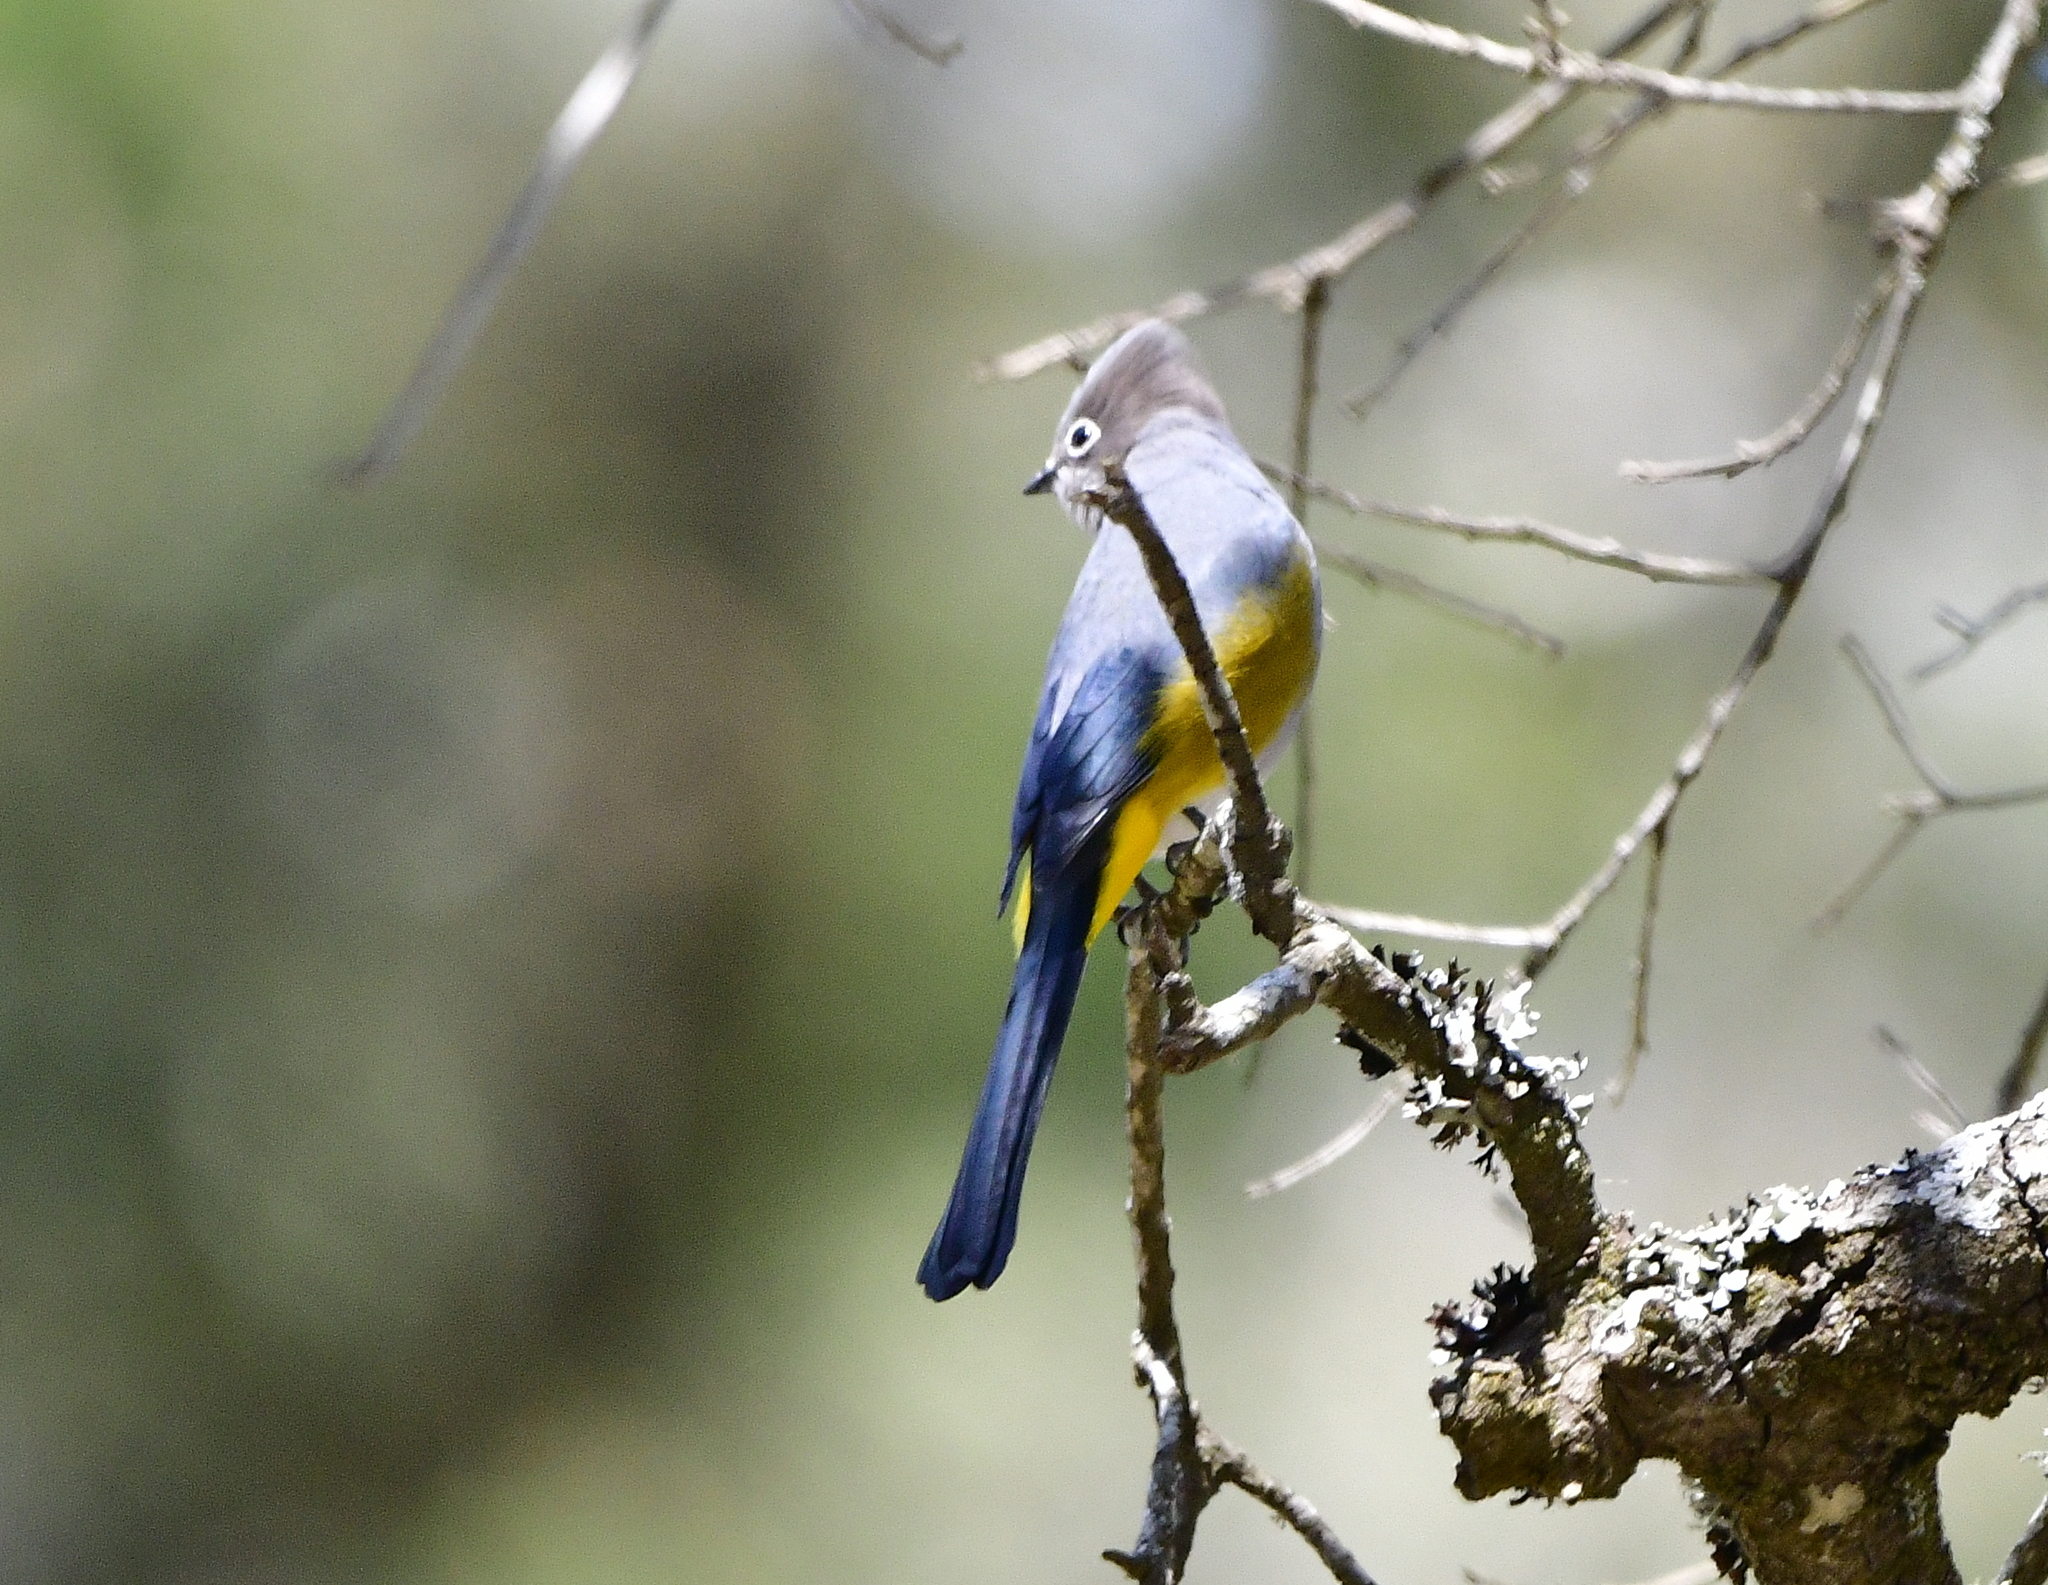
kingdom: Animalia
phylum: Chordata
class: Aves
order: Passeriformes
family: Ptilogonatidae
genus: Ptilogonys
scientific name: Ptilogonys cinereus
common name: Gray silky-flycatcher
